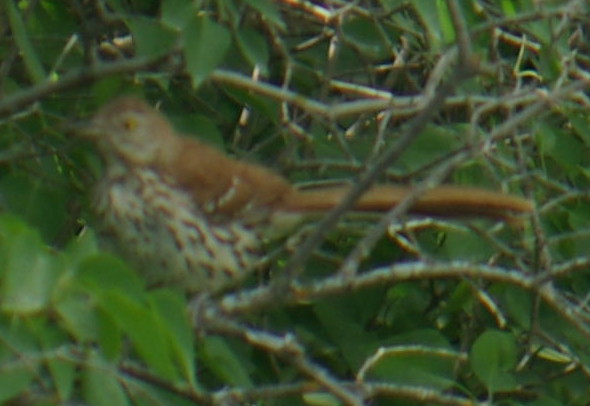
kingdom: Animalia
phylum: Chordata
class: Aves
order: Passeriformes
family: Mimidae
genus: Toxostoma
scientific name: Toxostoma rufum
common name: Brown thrasher
